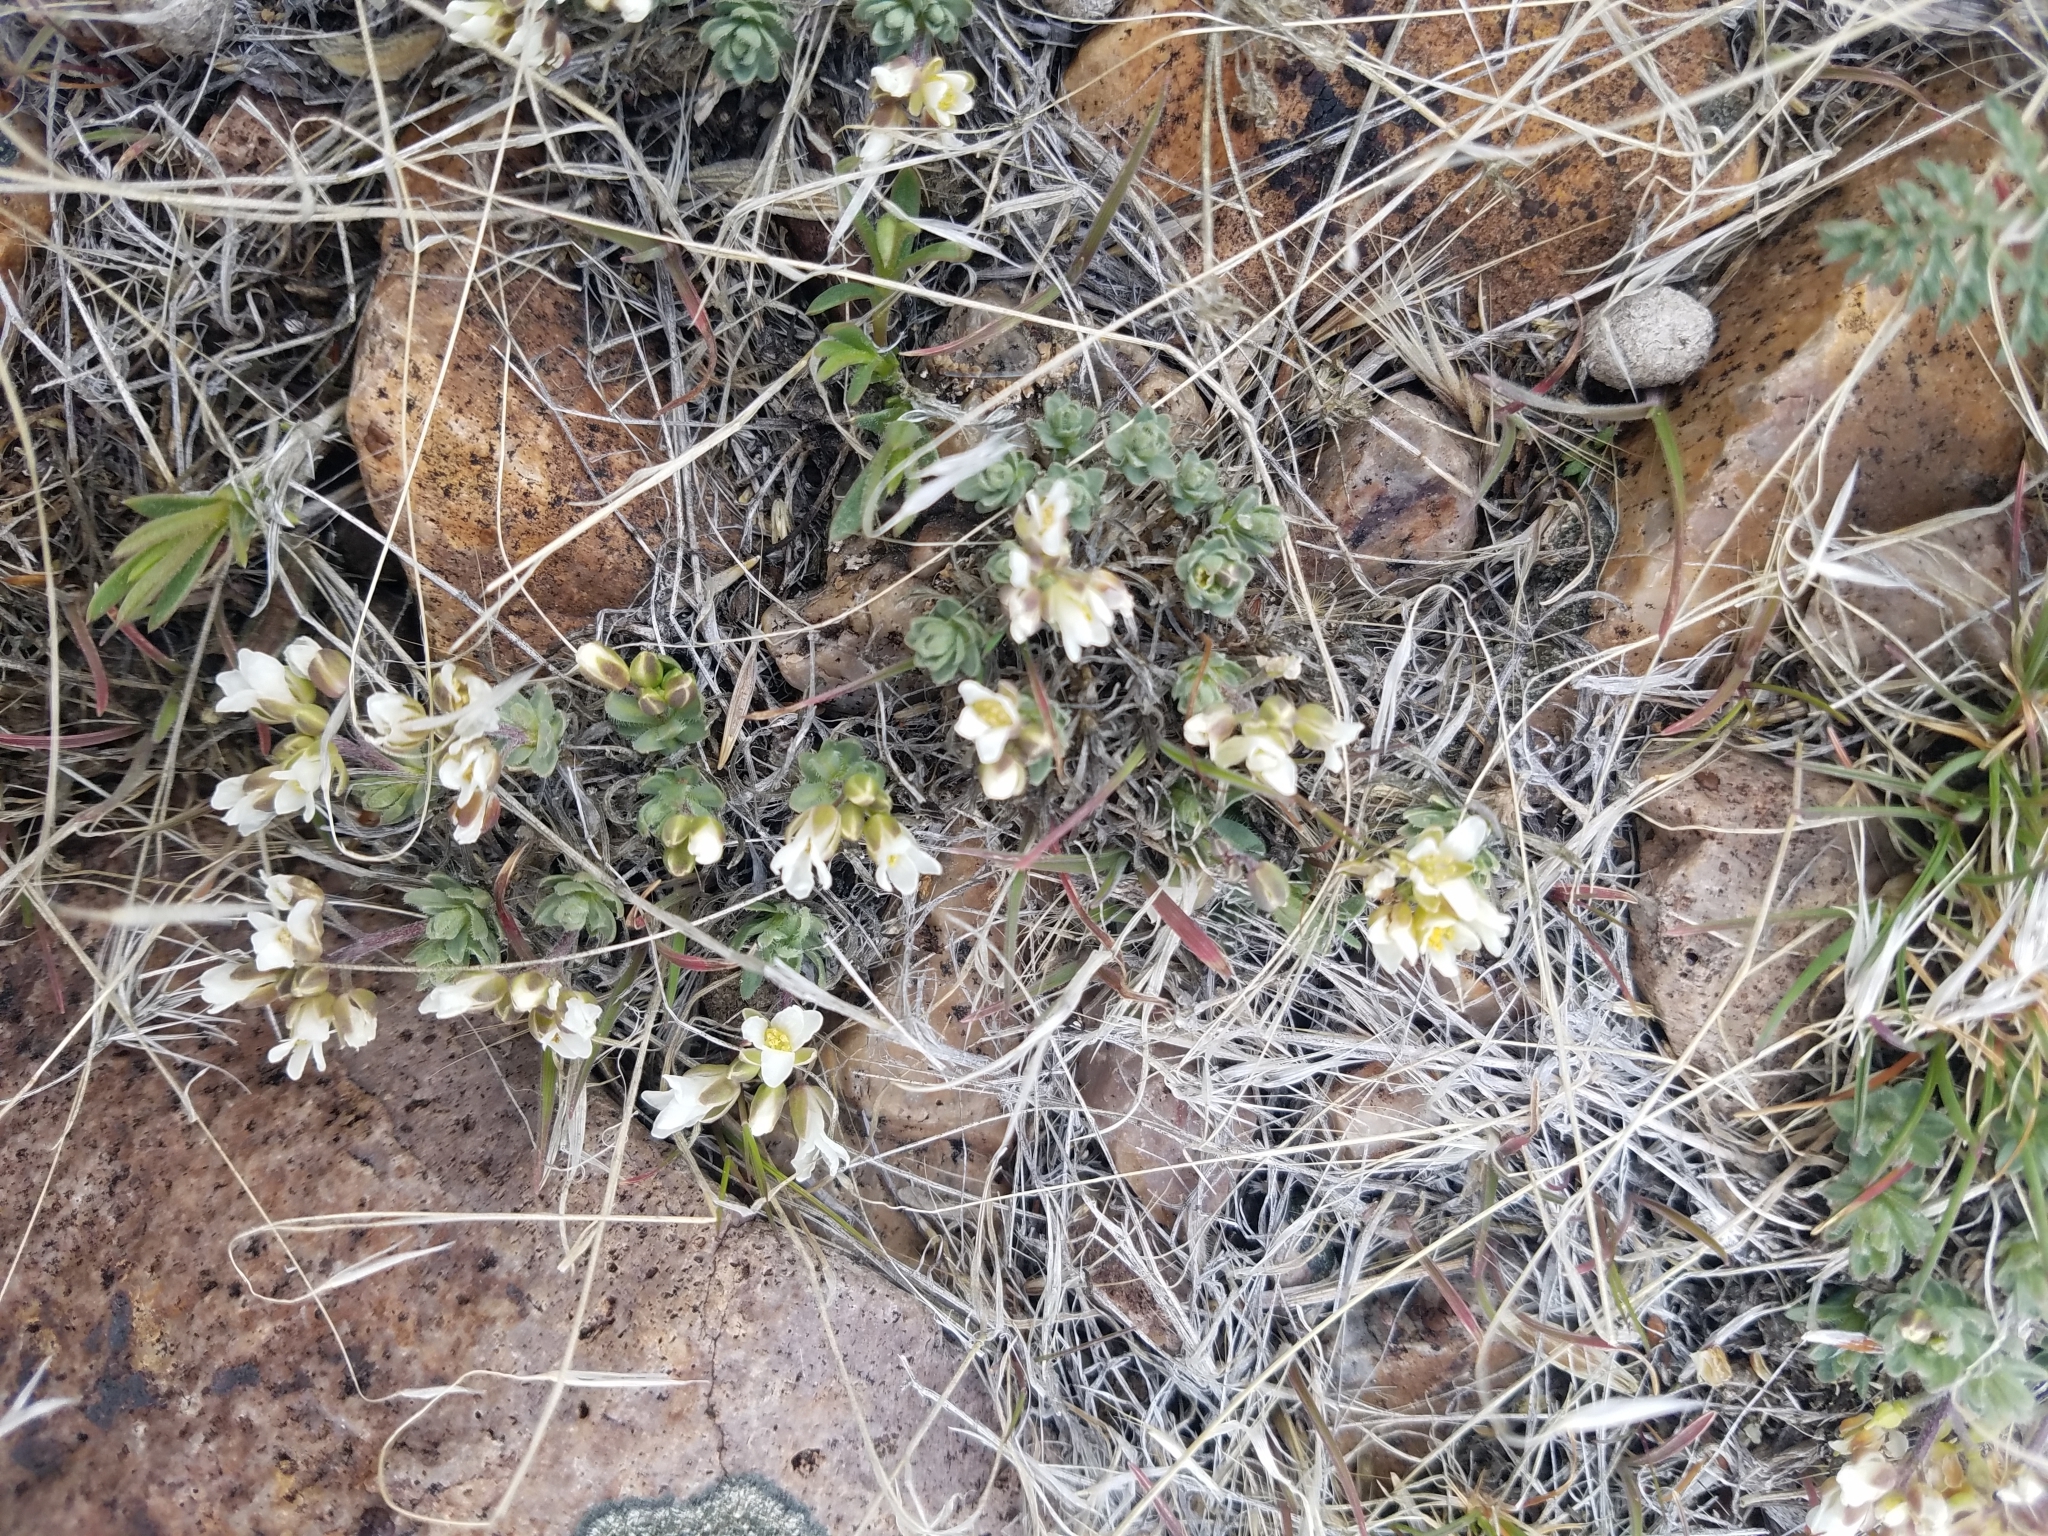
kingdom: Plantae
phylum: Tracheophyta
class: Magnoliopsida
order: Brassicales
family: Brassicaceae
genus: Cusickiella
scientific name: Cusickiella douglasii
